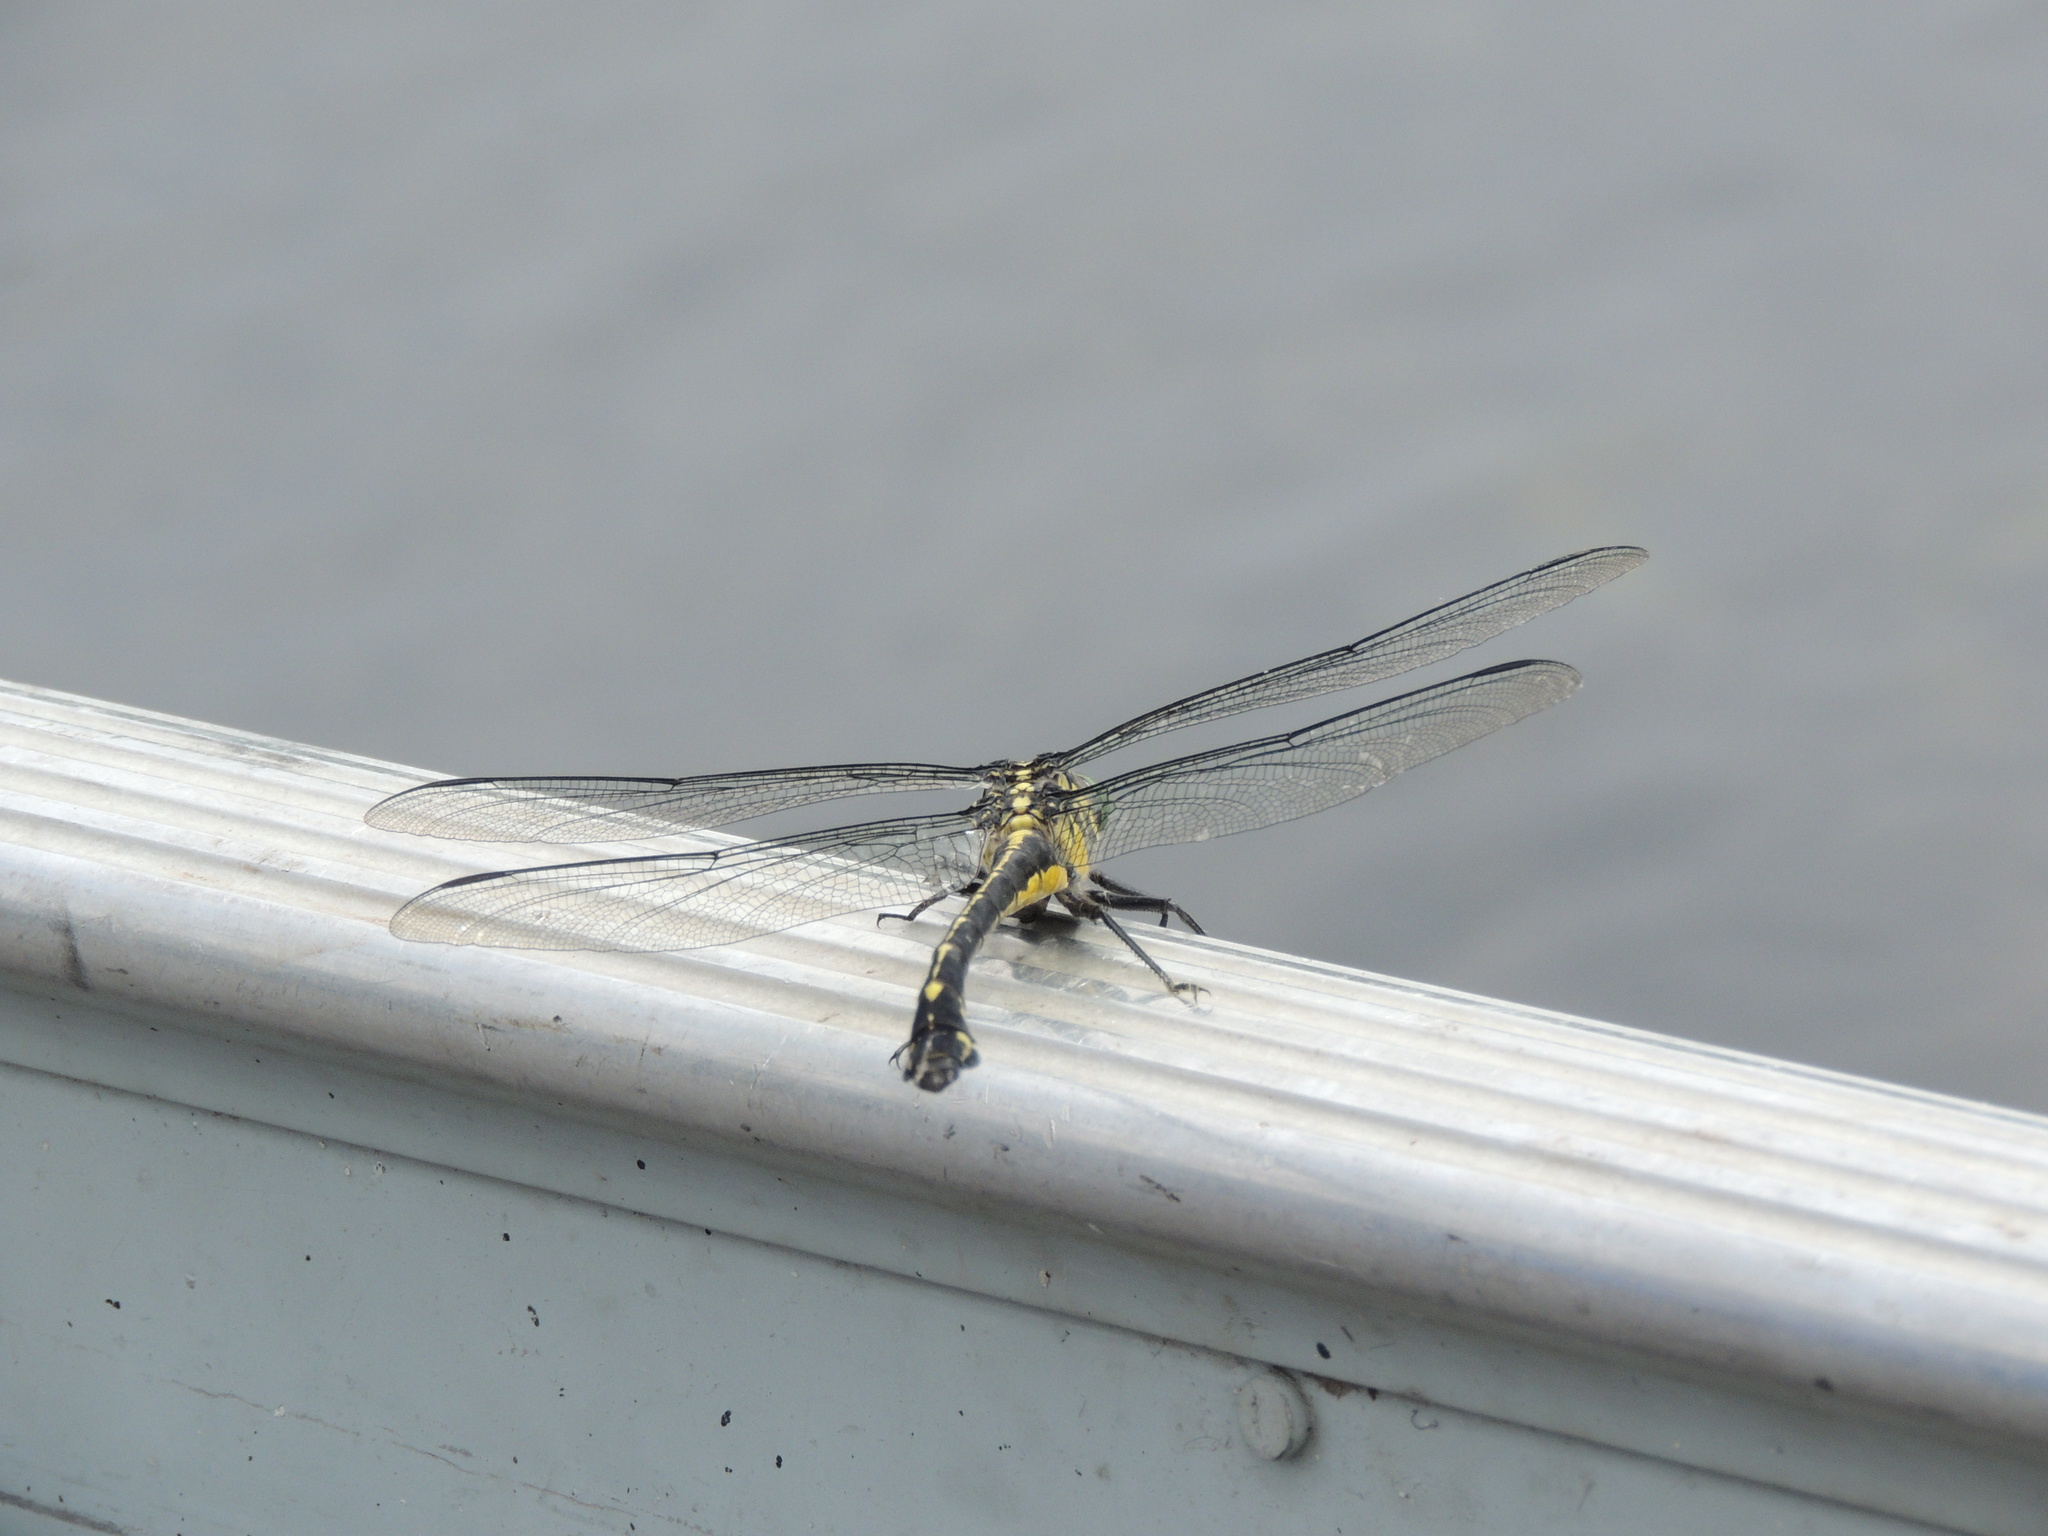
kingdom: Animalia
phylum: Arthropoda
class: Insecta
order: Odonata
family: Gomphidae
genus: Hagenius
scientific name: Hagenius brevistylus
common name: Dragonhunter
